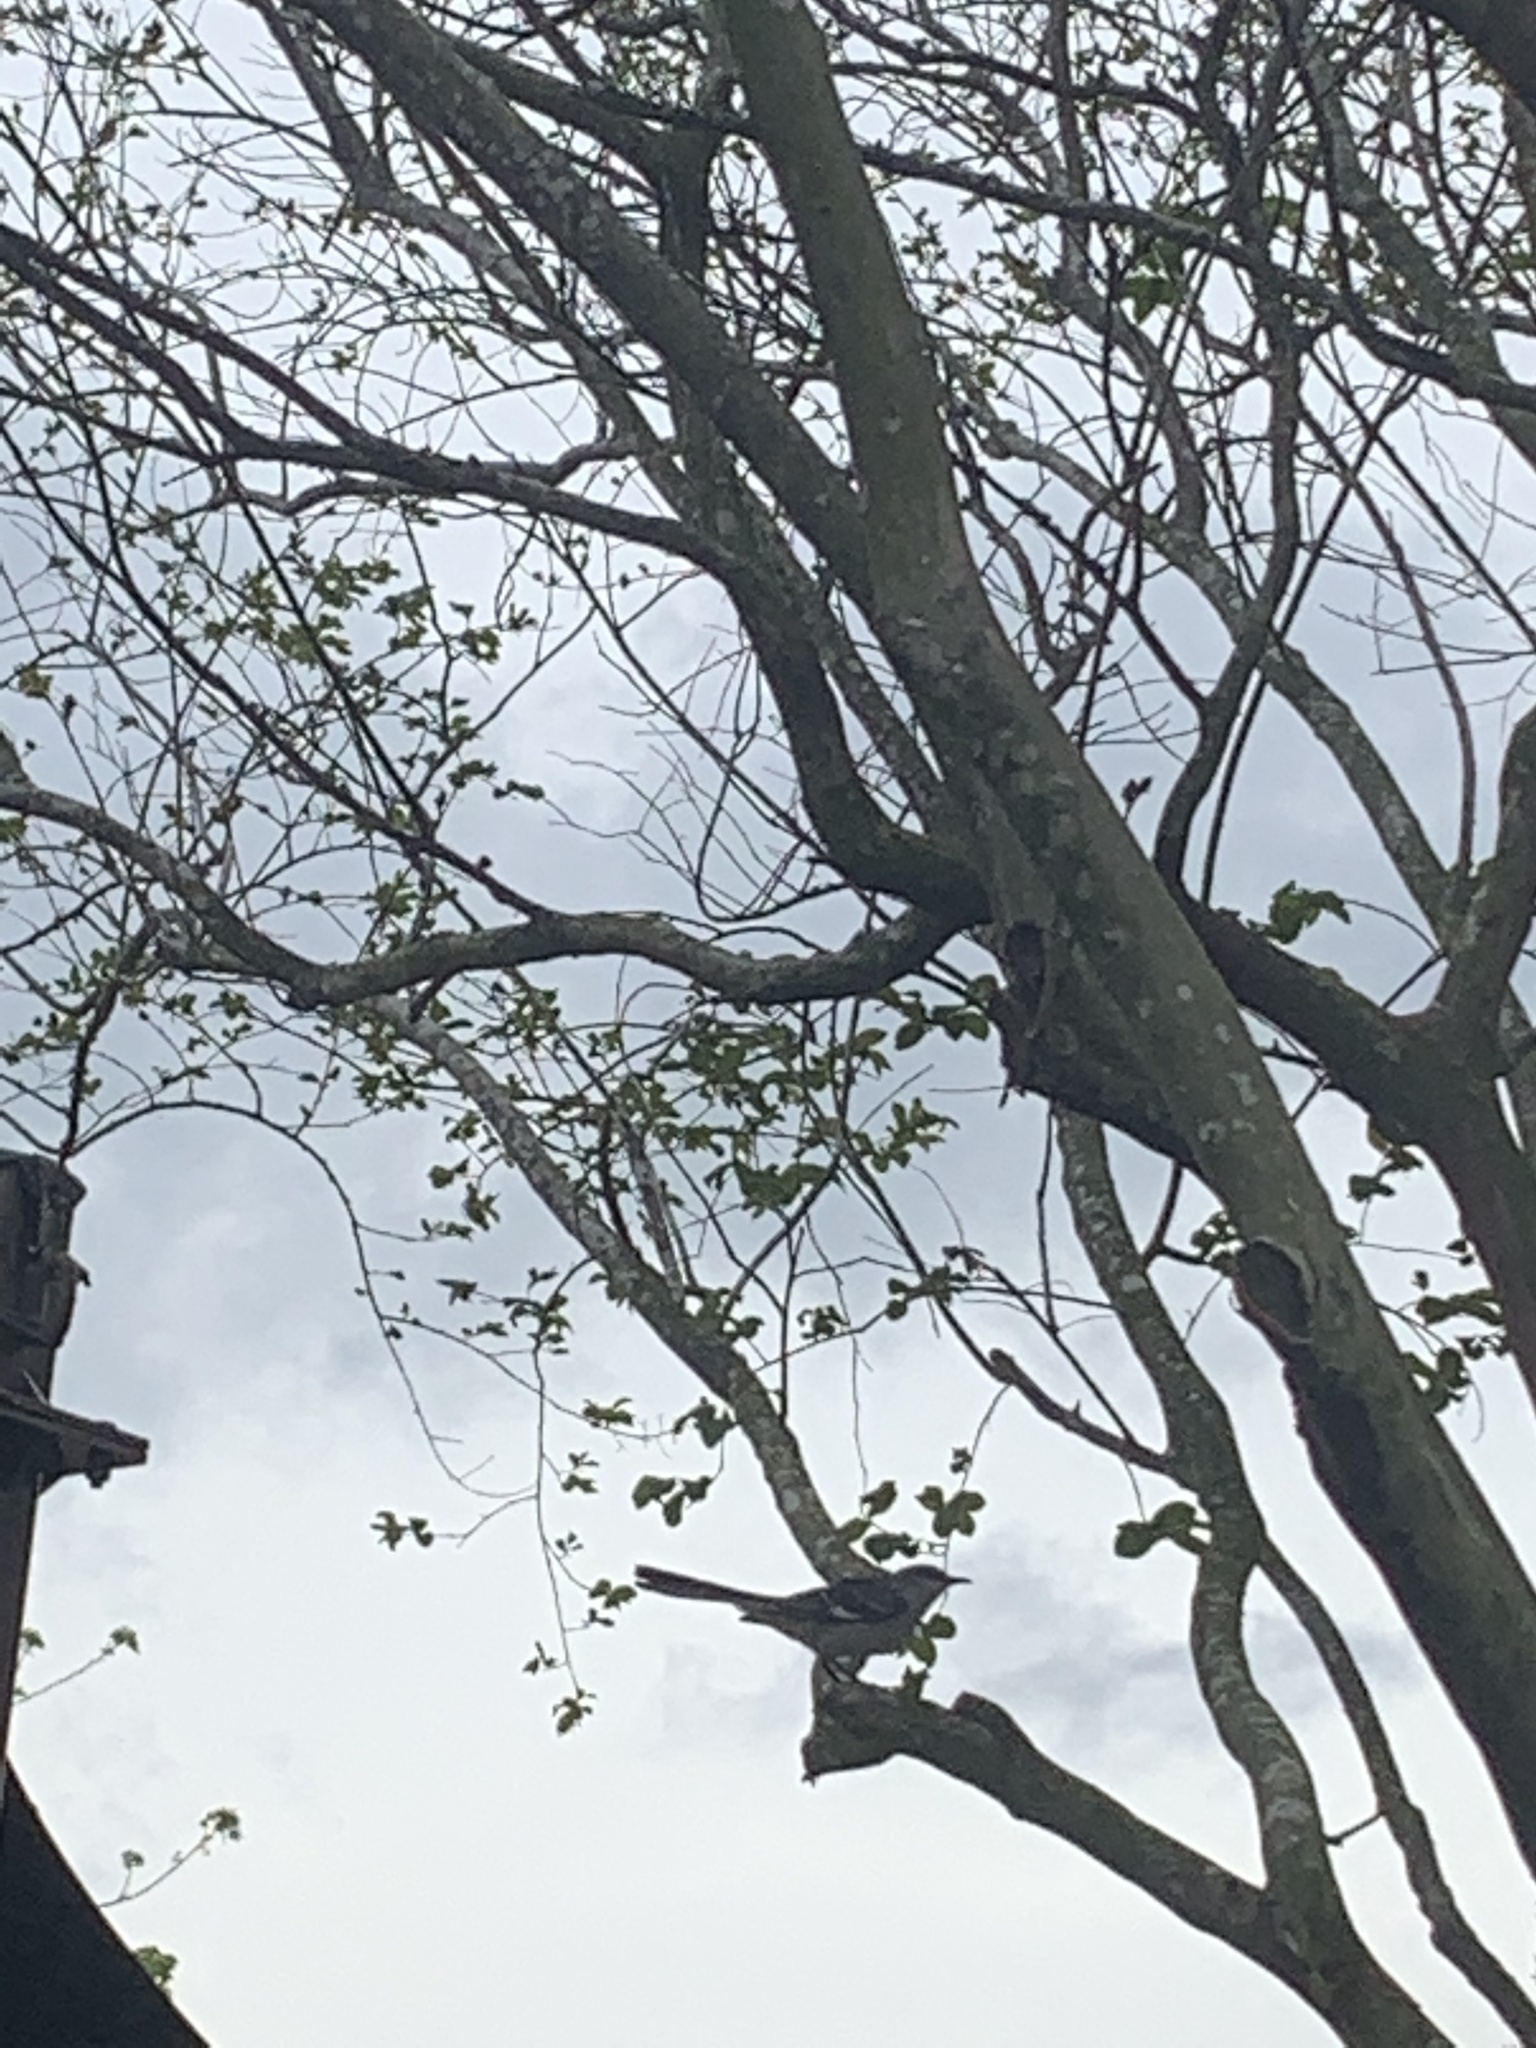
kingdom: Animalia
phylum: Chordata
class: Aves
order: Passeriformes
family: Mimidae
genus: Mimus
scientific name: Mimus polyglottos
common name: Northern mockingbird
